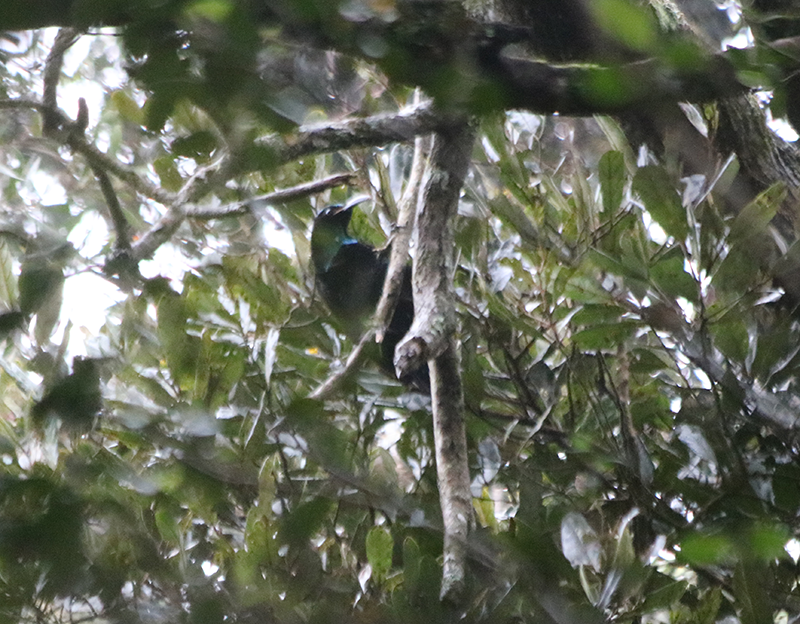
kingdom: Animalia
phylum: Chordata
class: Aves
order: Passeriformes
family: Paradisaeidae
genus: Ptiloris
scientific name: Ptiloris paradiseus
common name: Paradise riflebird
